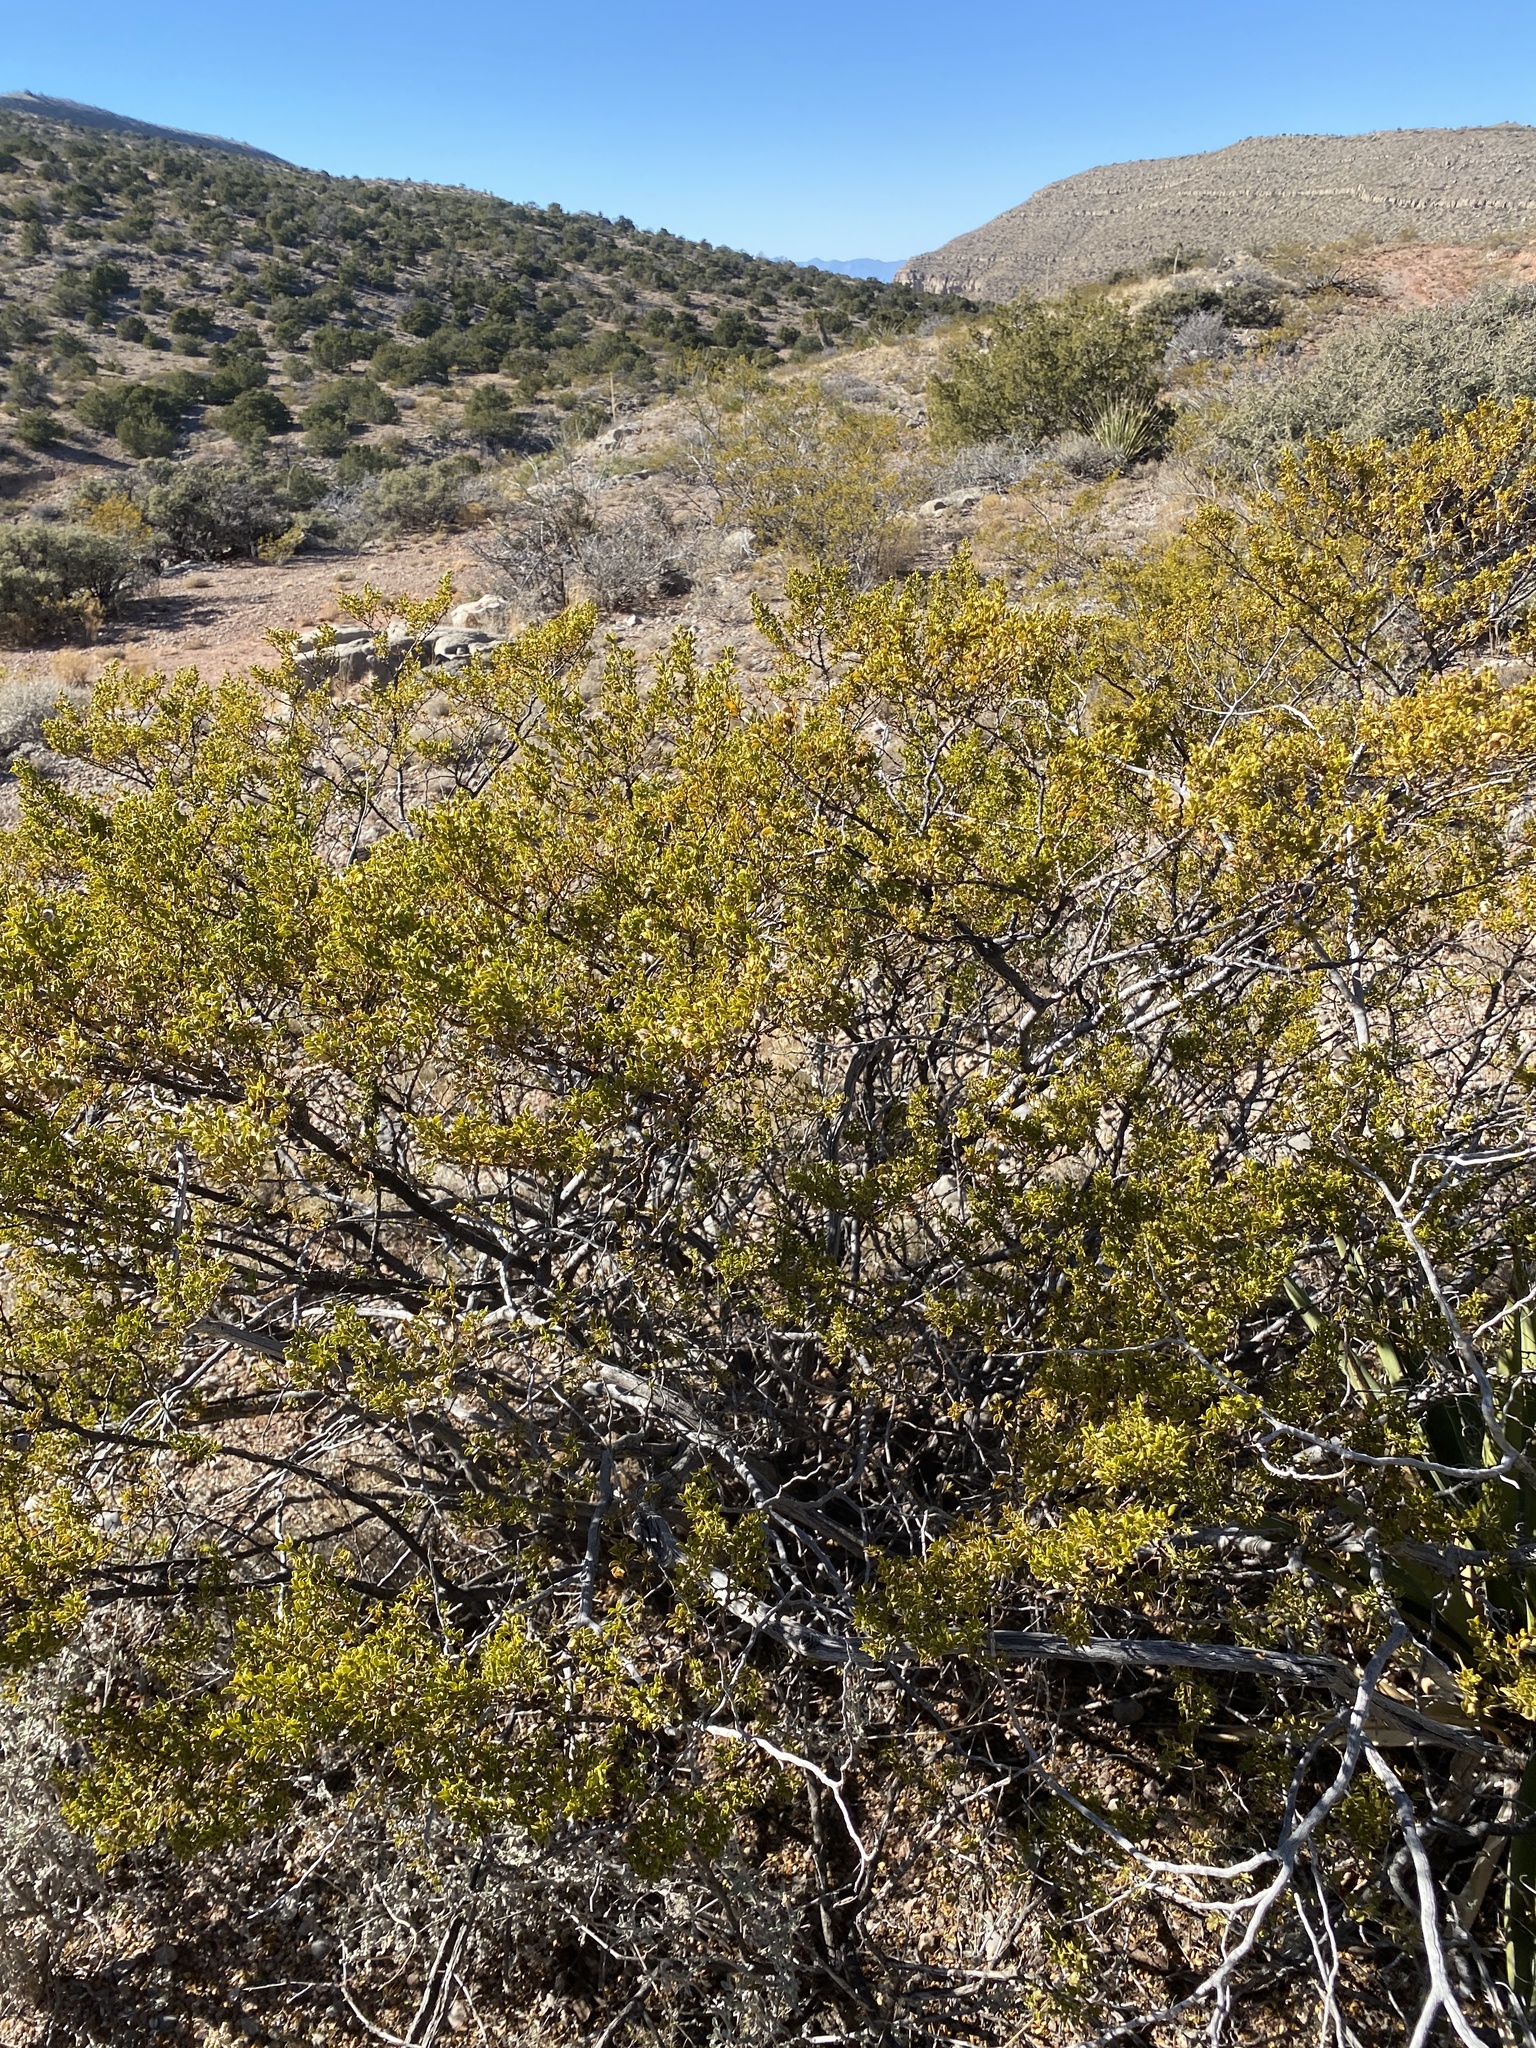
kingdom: Plantae
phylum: Tracheophyta
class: Magnoliopsida
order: Zygophyllales
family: Zygophyllaceae
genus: Larrea
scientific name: Larrea tridentata
